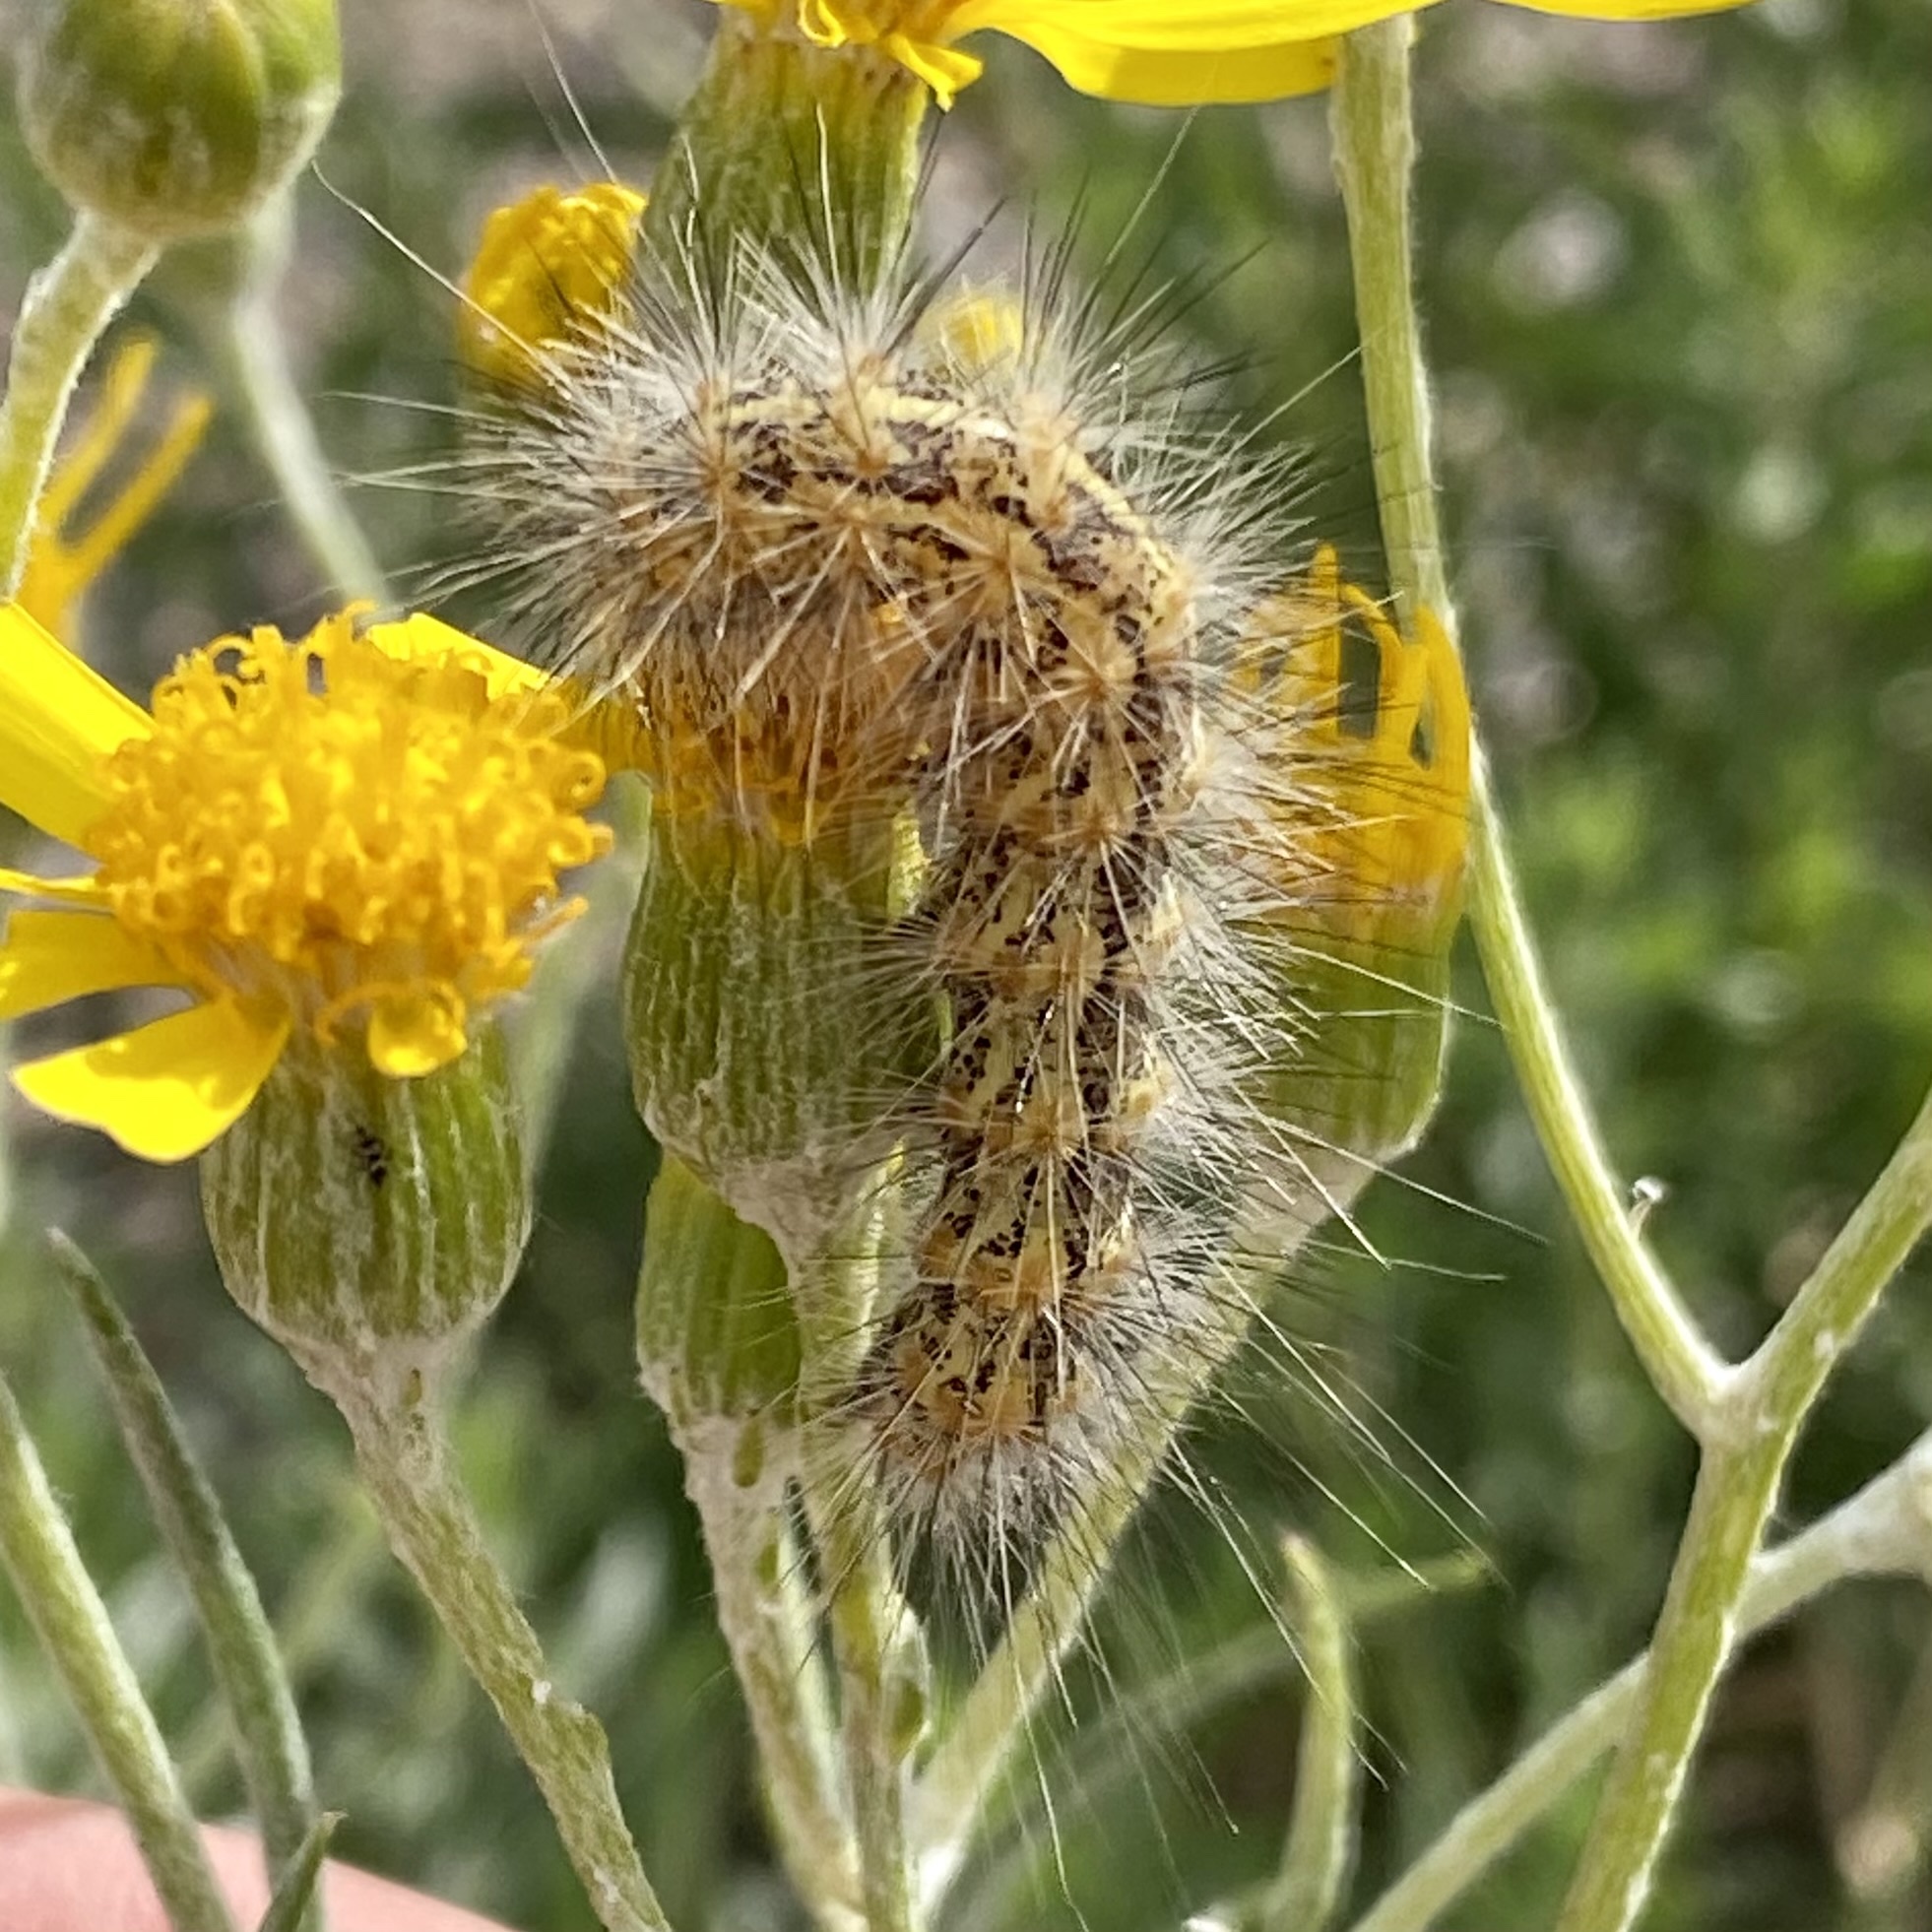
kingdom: Animalia
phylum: Arthropoda
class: Insecta
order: Lepidoptera
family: Erebidae
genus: Estigmene
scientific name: Estigmene
